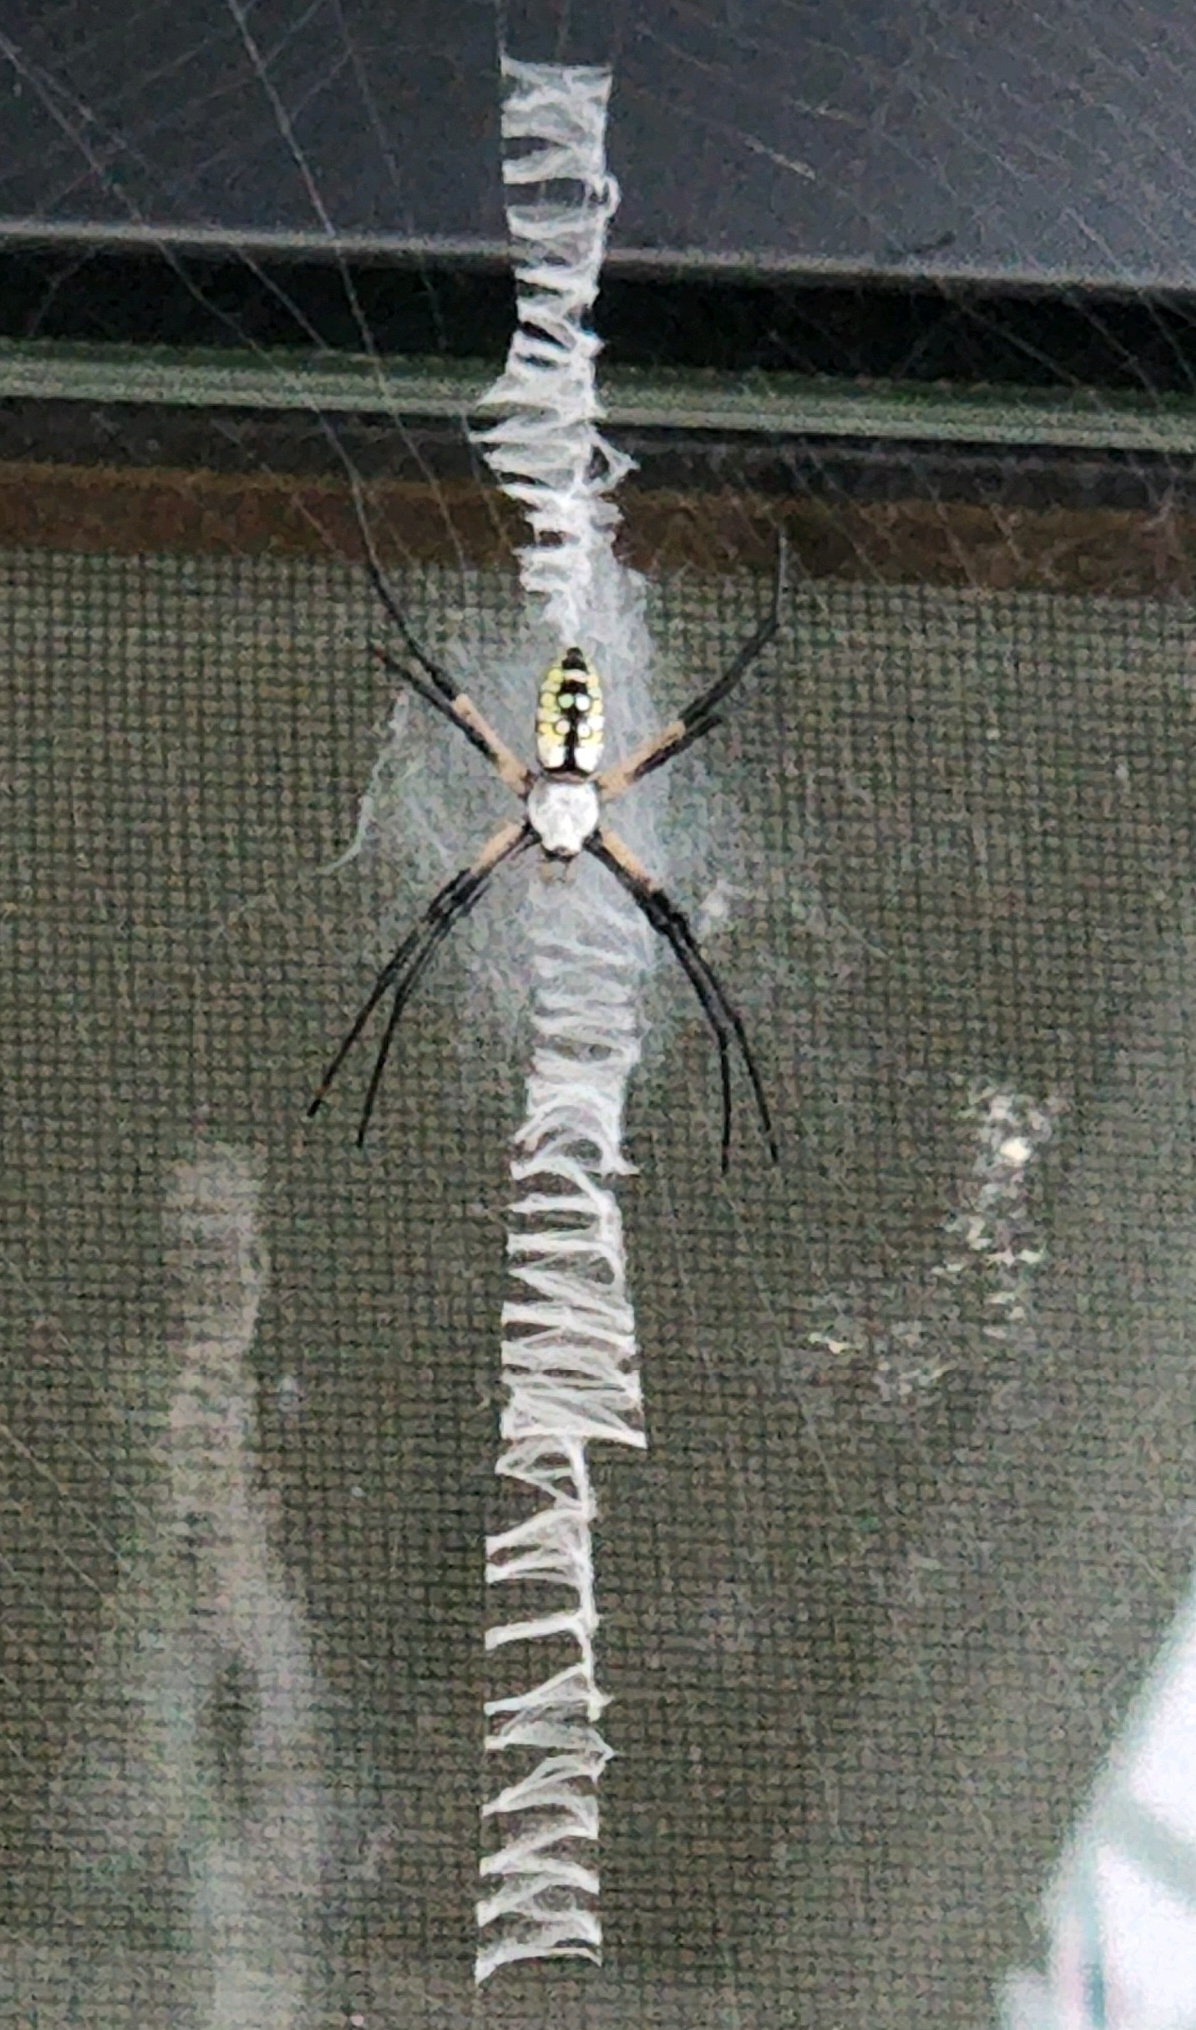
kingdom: Animalia
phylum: Arthropoda
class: Arachnida
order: Araneae
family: Araneidae
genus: Argiope
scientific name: Argiope aurantia
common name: Orb weavers
